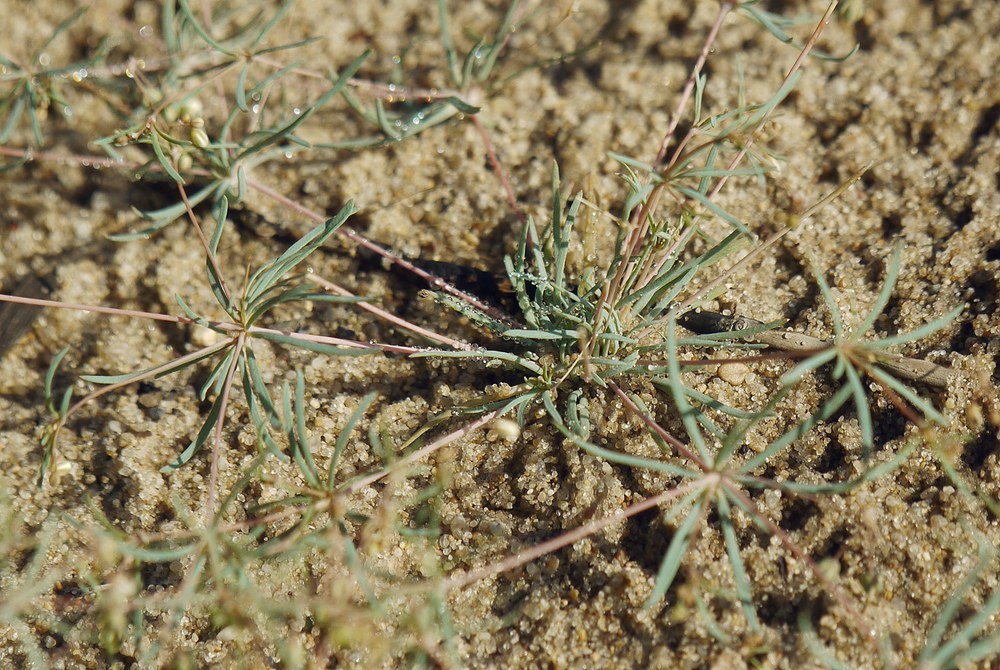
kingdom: Plantae
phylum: Tracheophyta
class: Magnoliopsida
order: Caryophyllales
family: Molluginaceae
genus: Hypertelis
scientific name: Hypertelis cerviana
